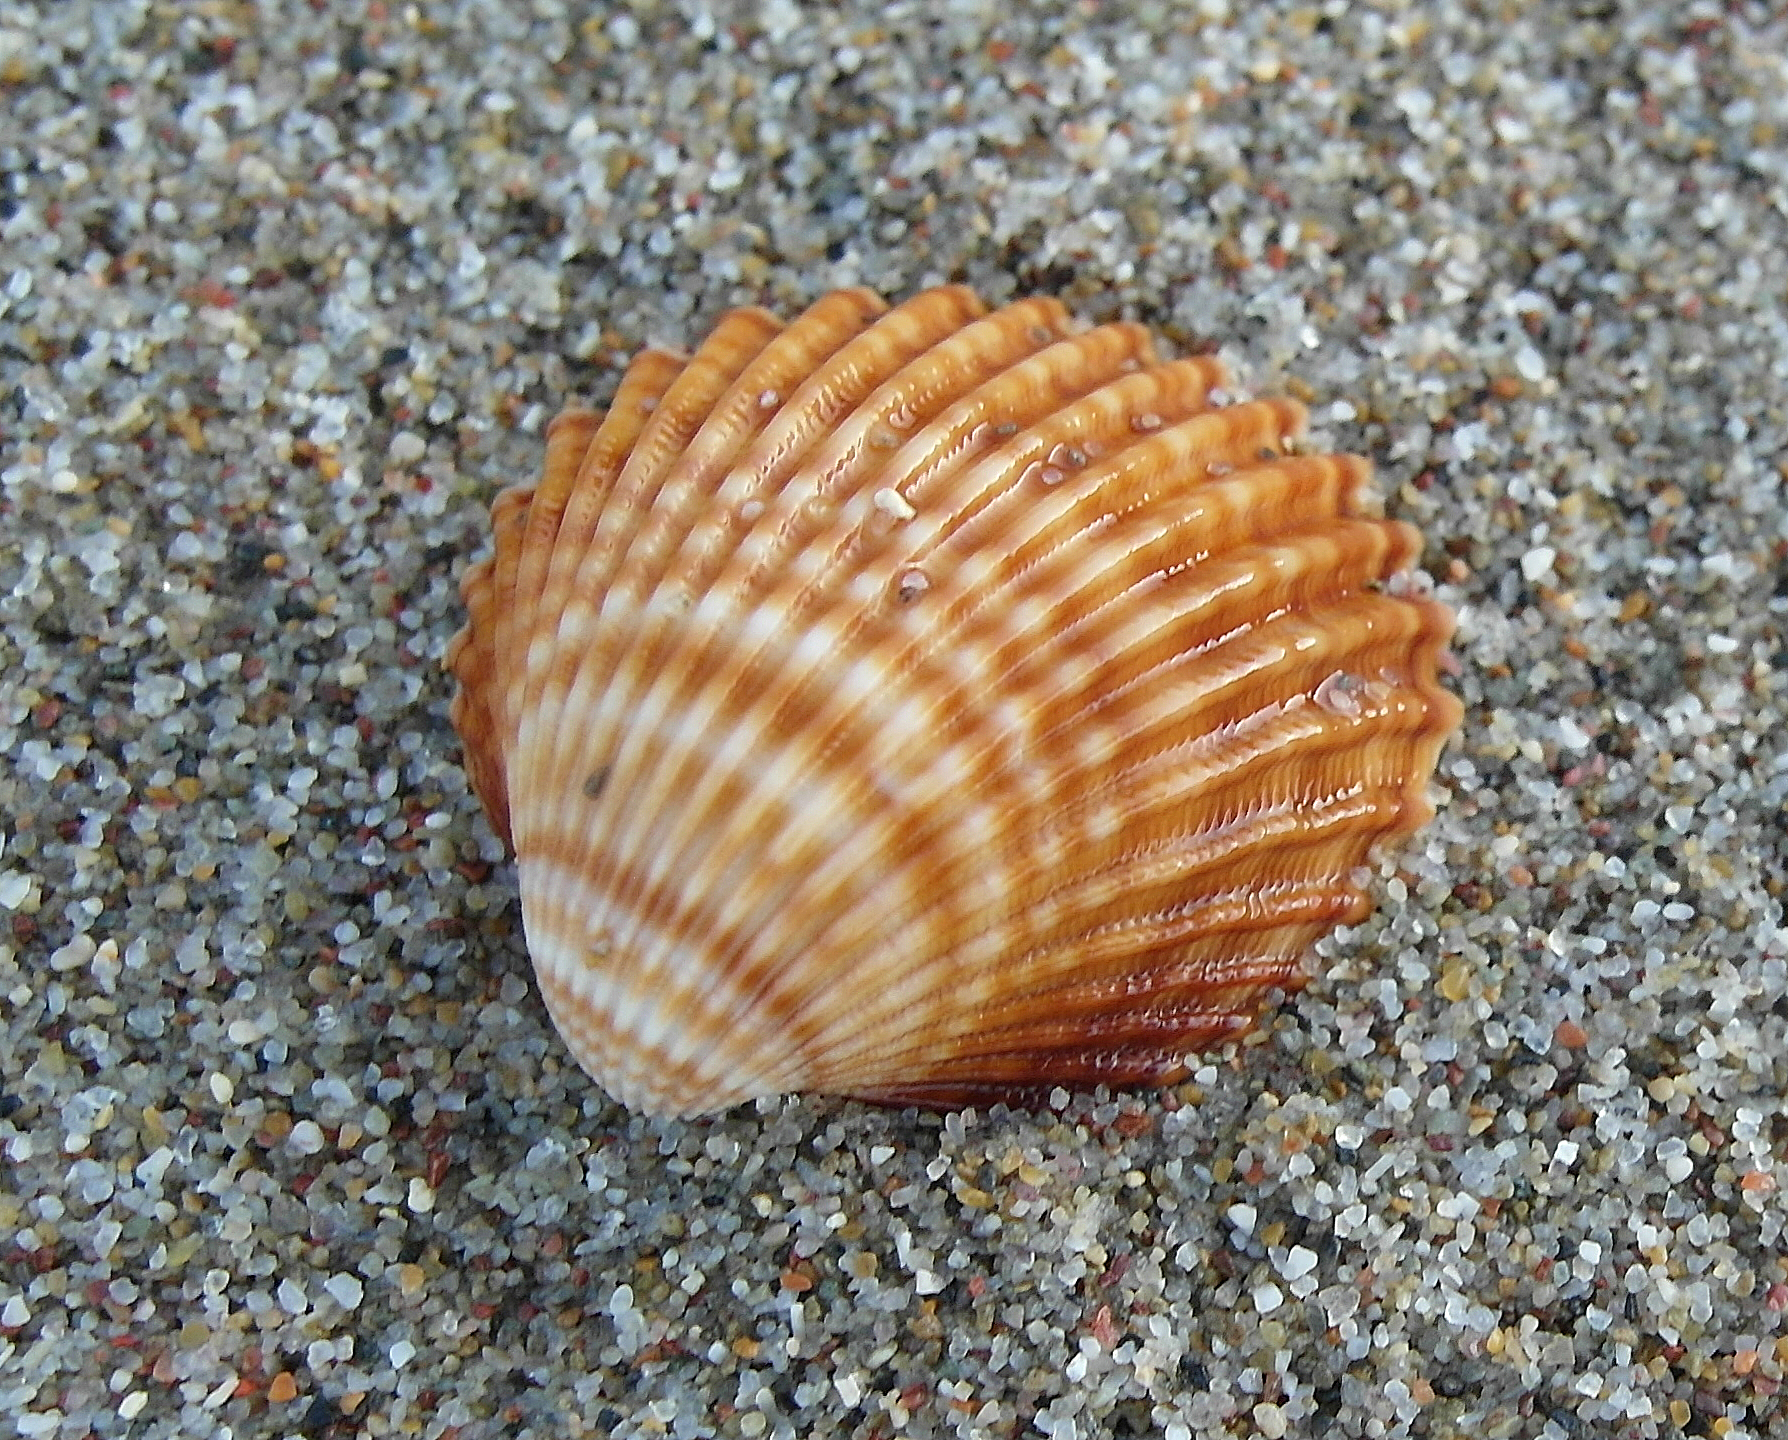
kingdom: Animalia
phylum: Mollusca
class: Bivalvia
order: Cardiida
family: Cardiidae
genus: Acanthocardia
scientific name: Acanthocardia tuberculata
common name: Rough cockle
